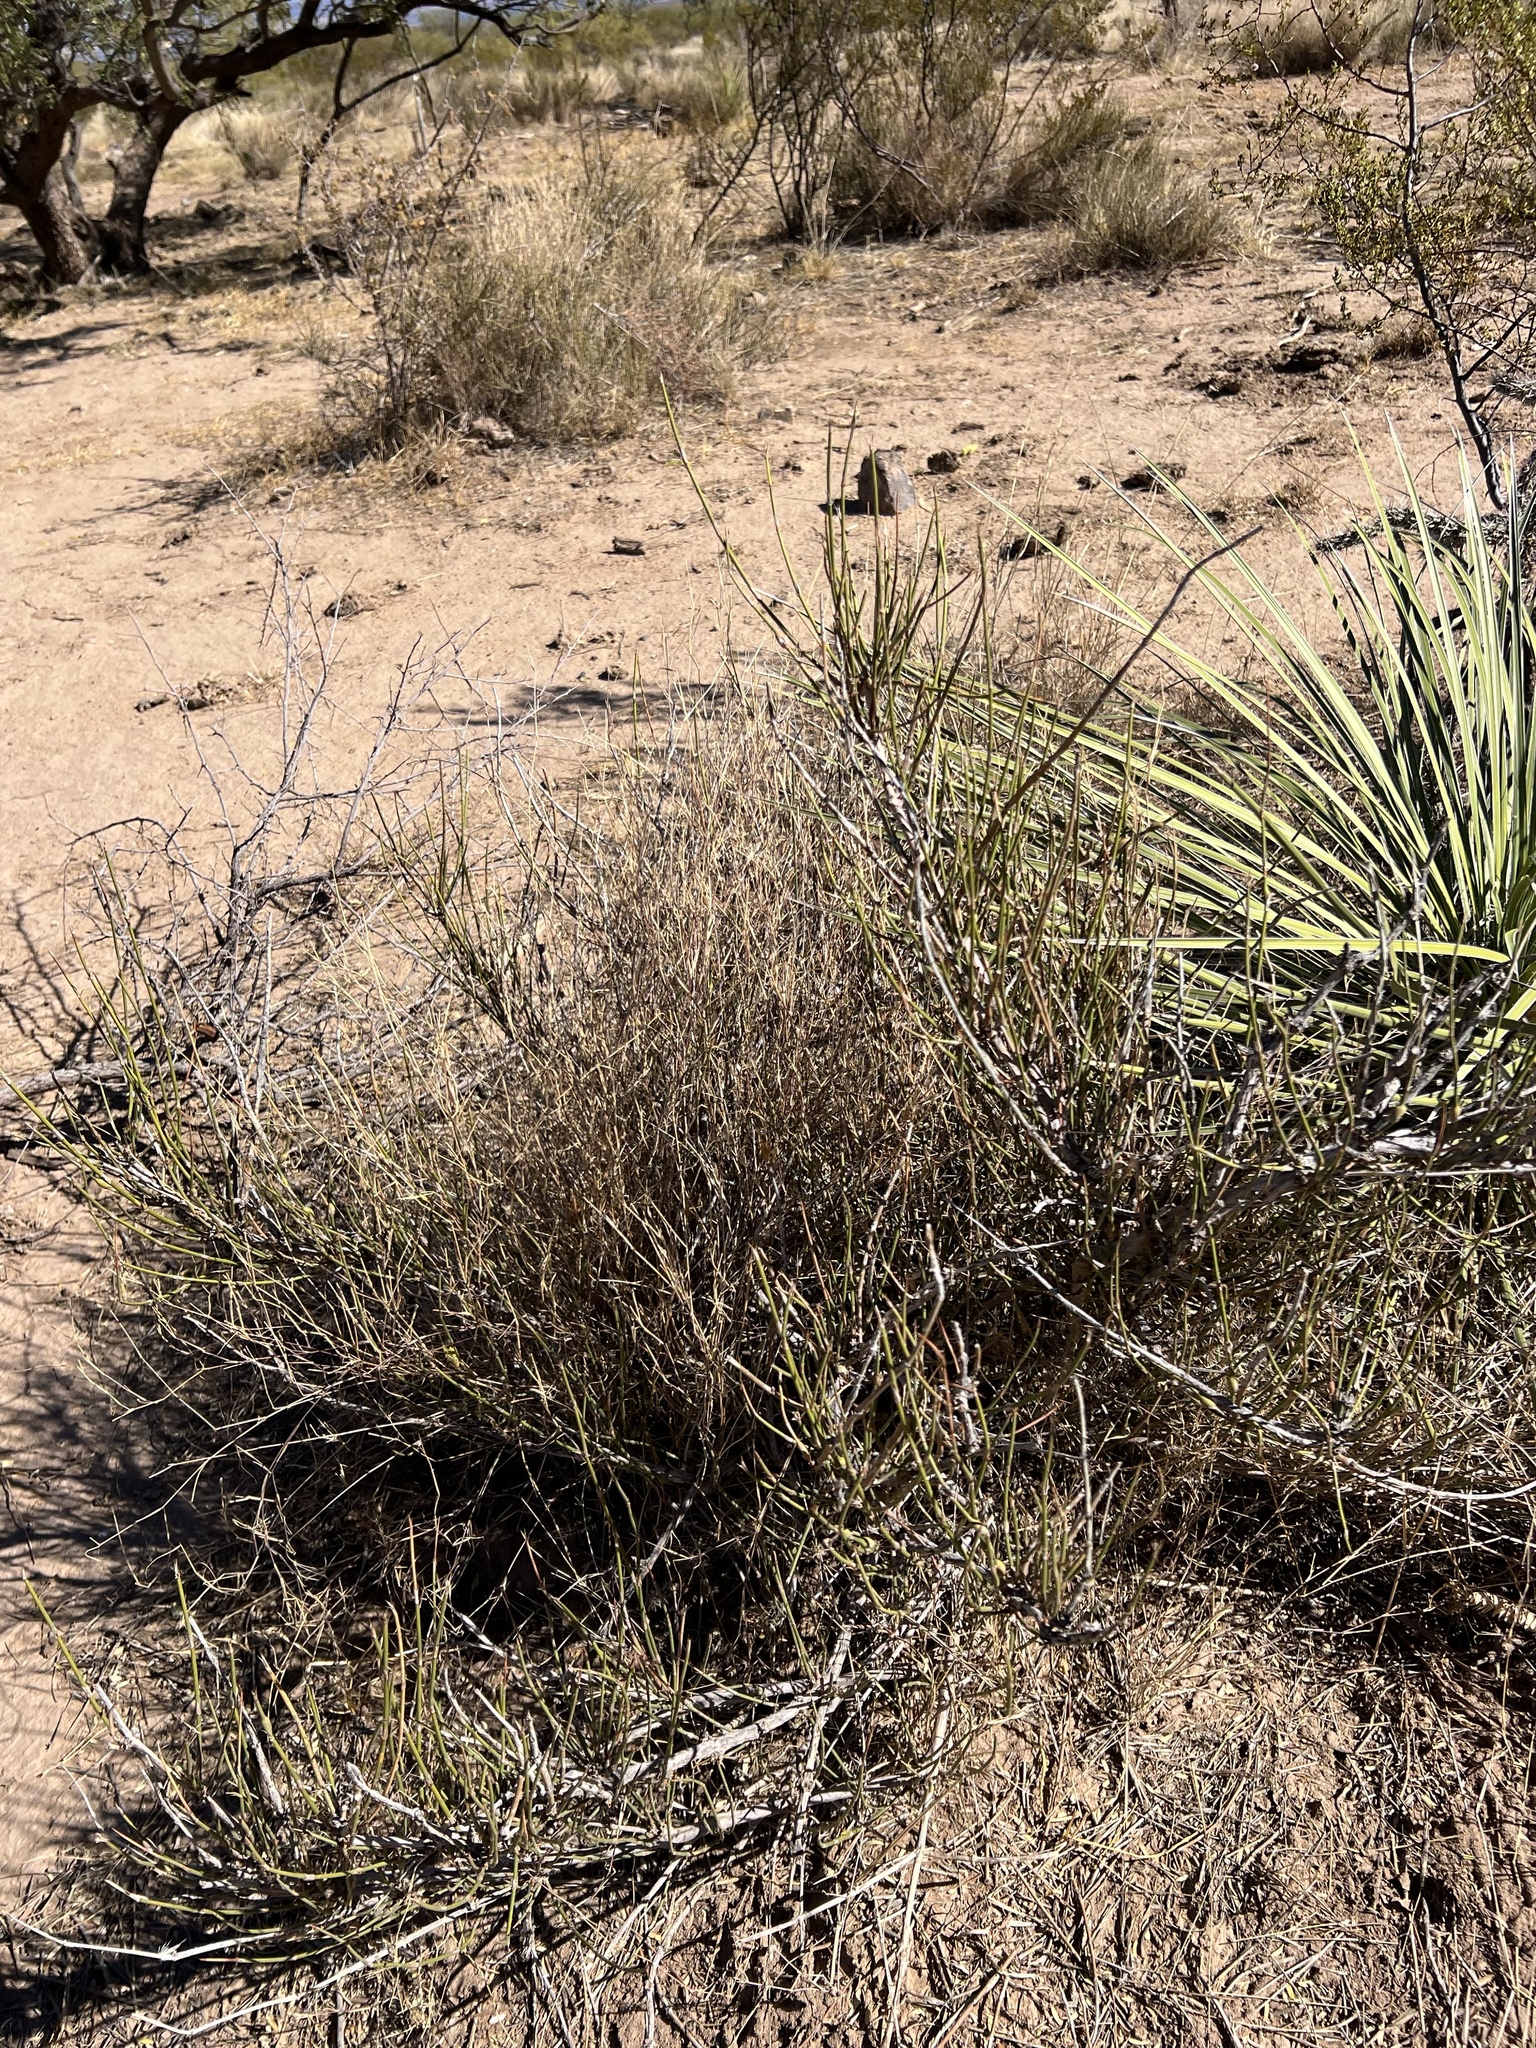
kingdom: Plantae
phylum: Tracheophyta
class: Gnetopsida
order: Ephedrales
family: Ephedraceae
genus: Ephedra
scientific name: Ephedra trifurca
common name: Mexican-tea
